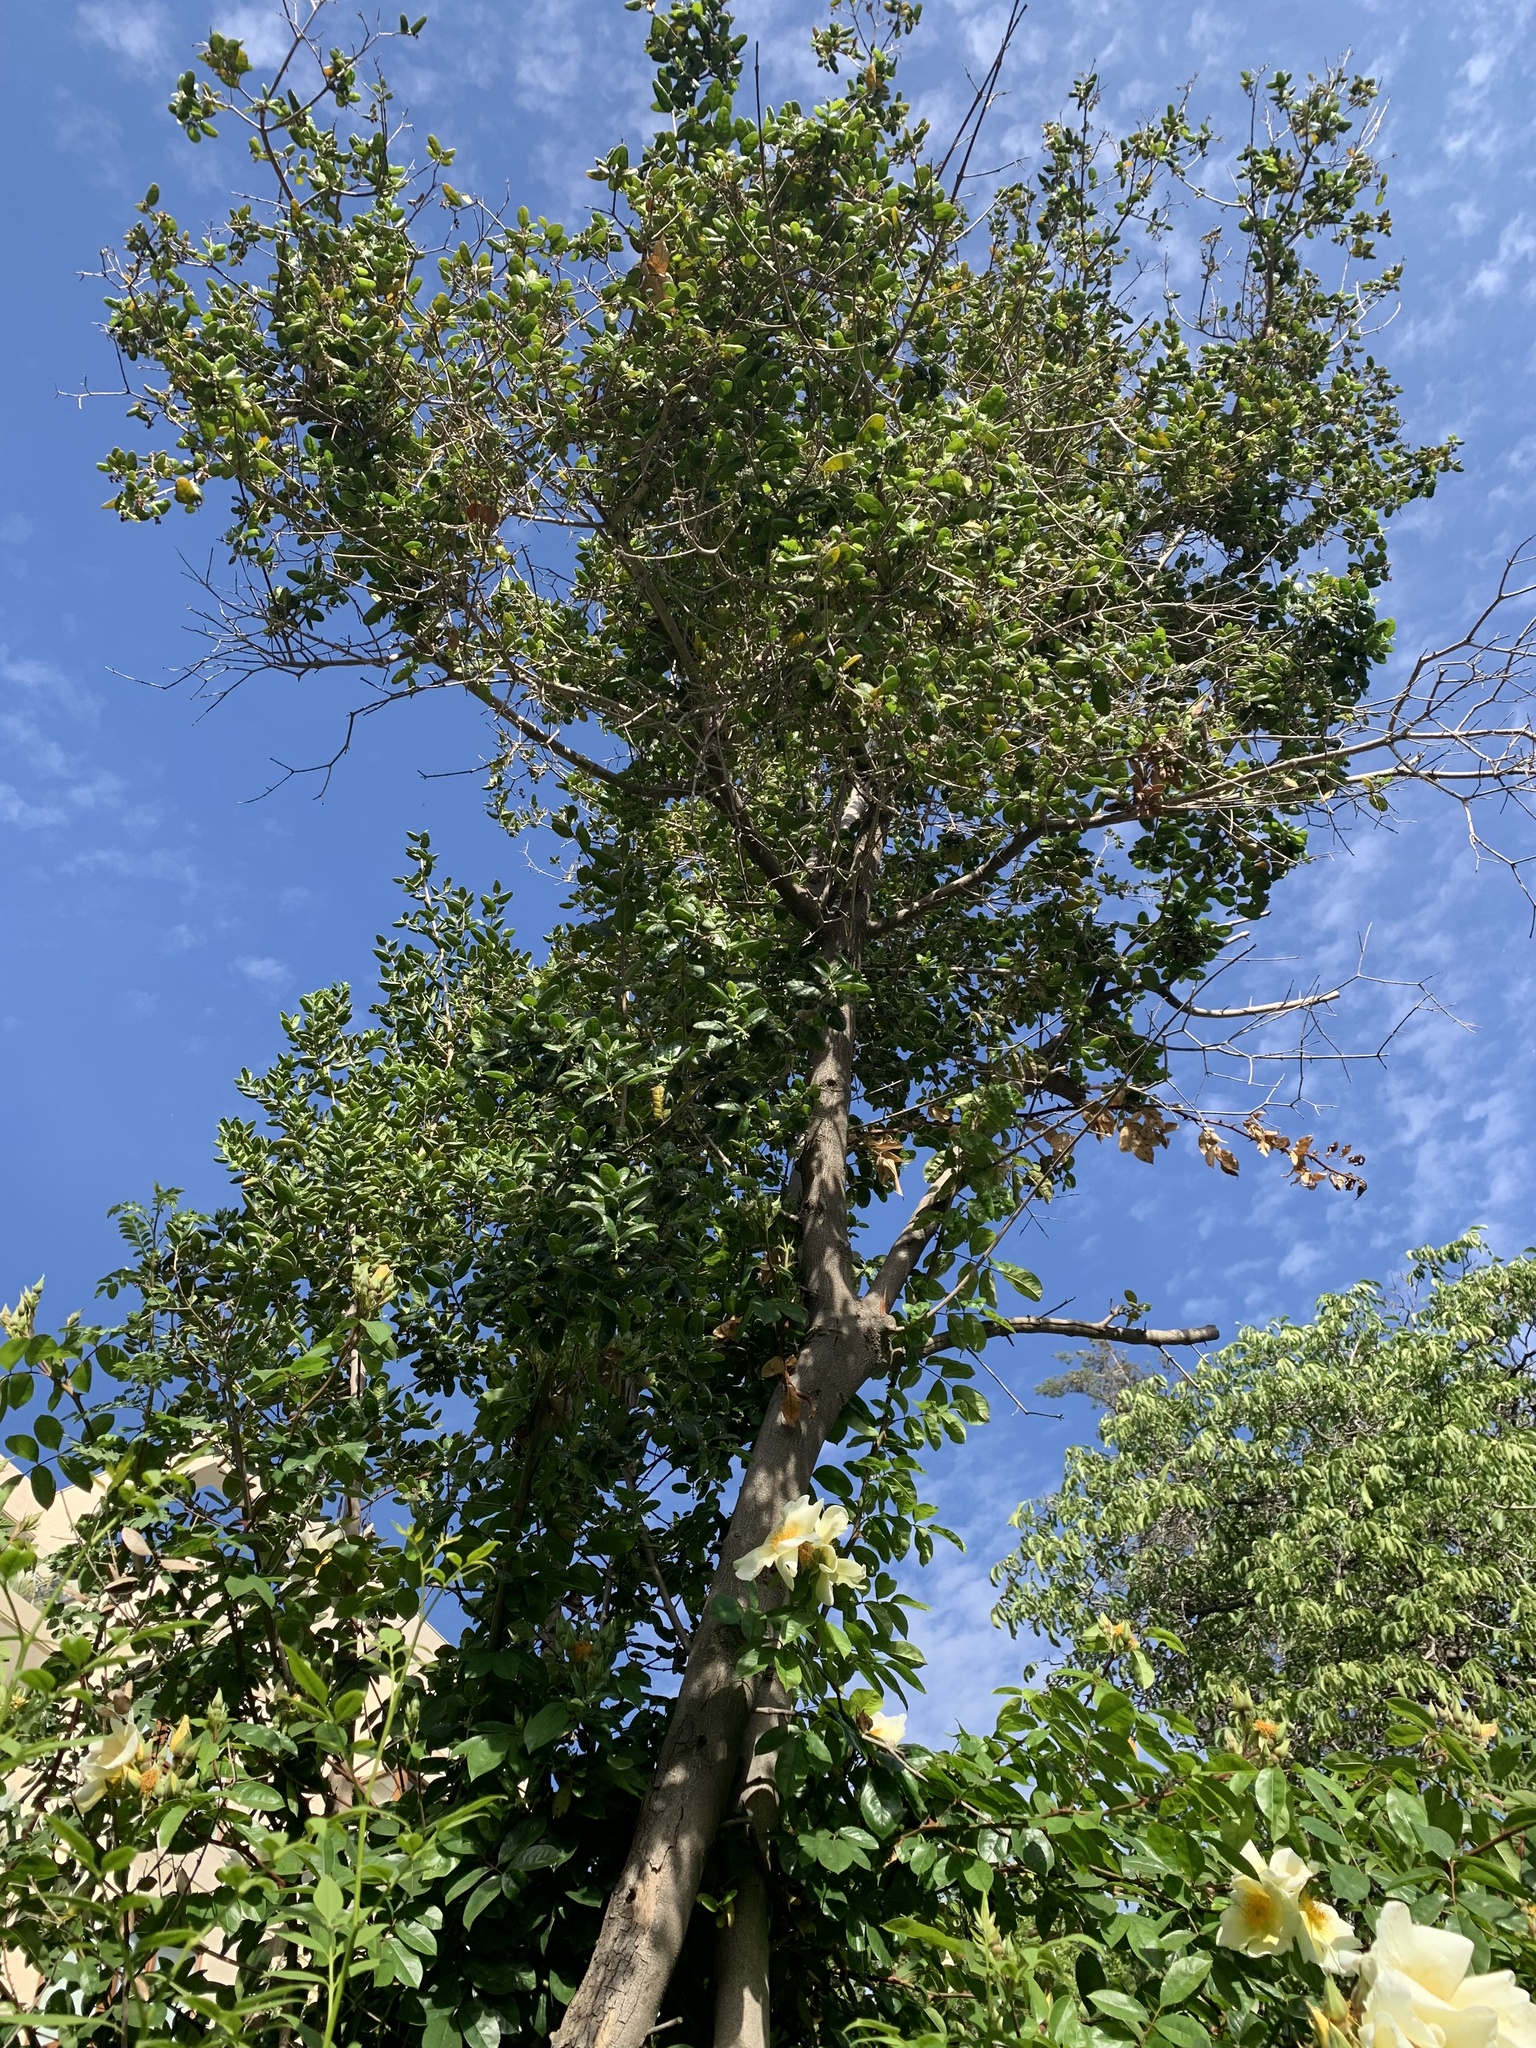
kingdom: Plantae
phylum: Tracheophyta
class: Magnoliopsida
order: Laurales
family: Monimiaceae
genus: Peumus
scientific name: Peumus boldus
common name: Boldo
